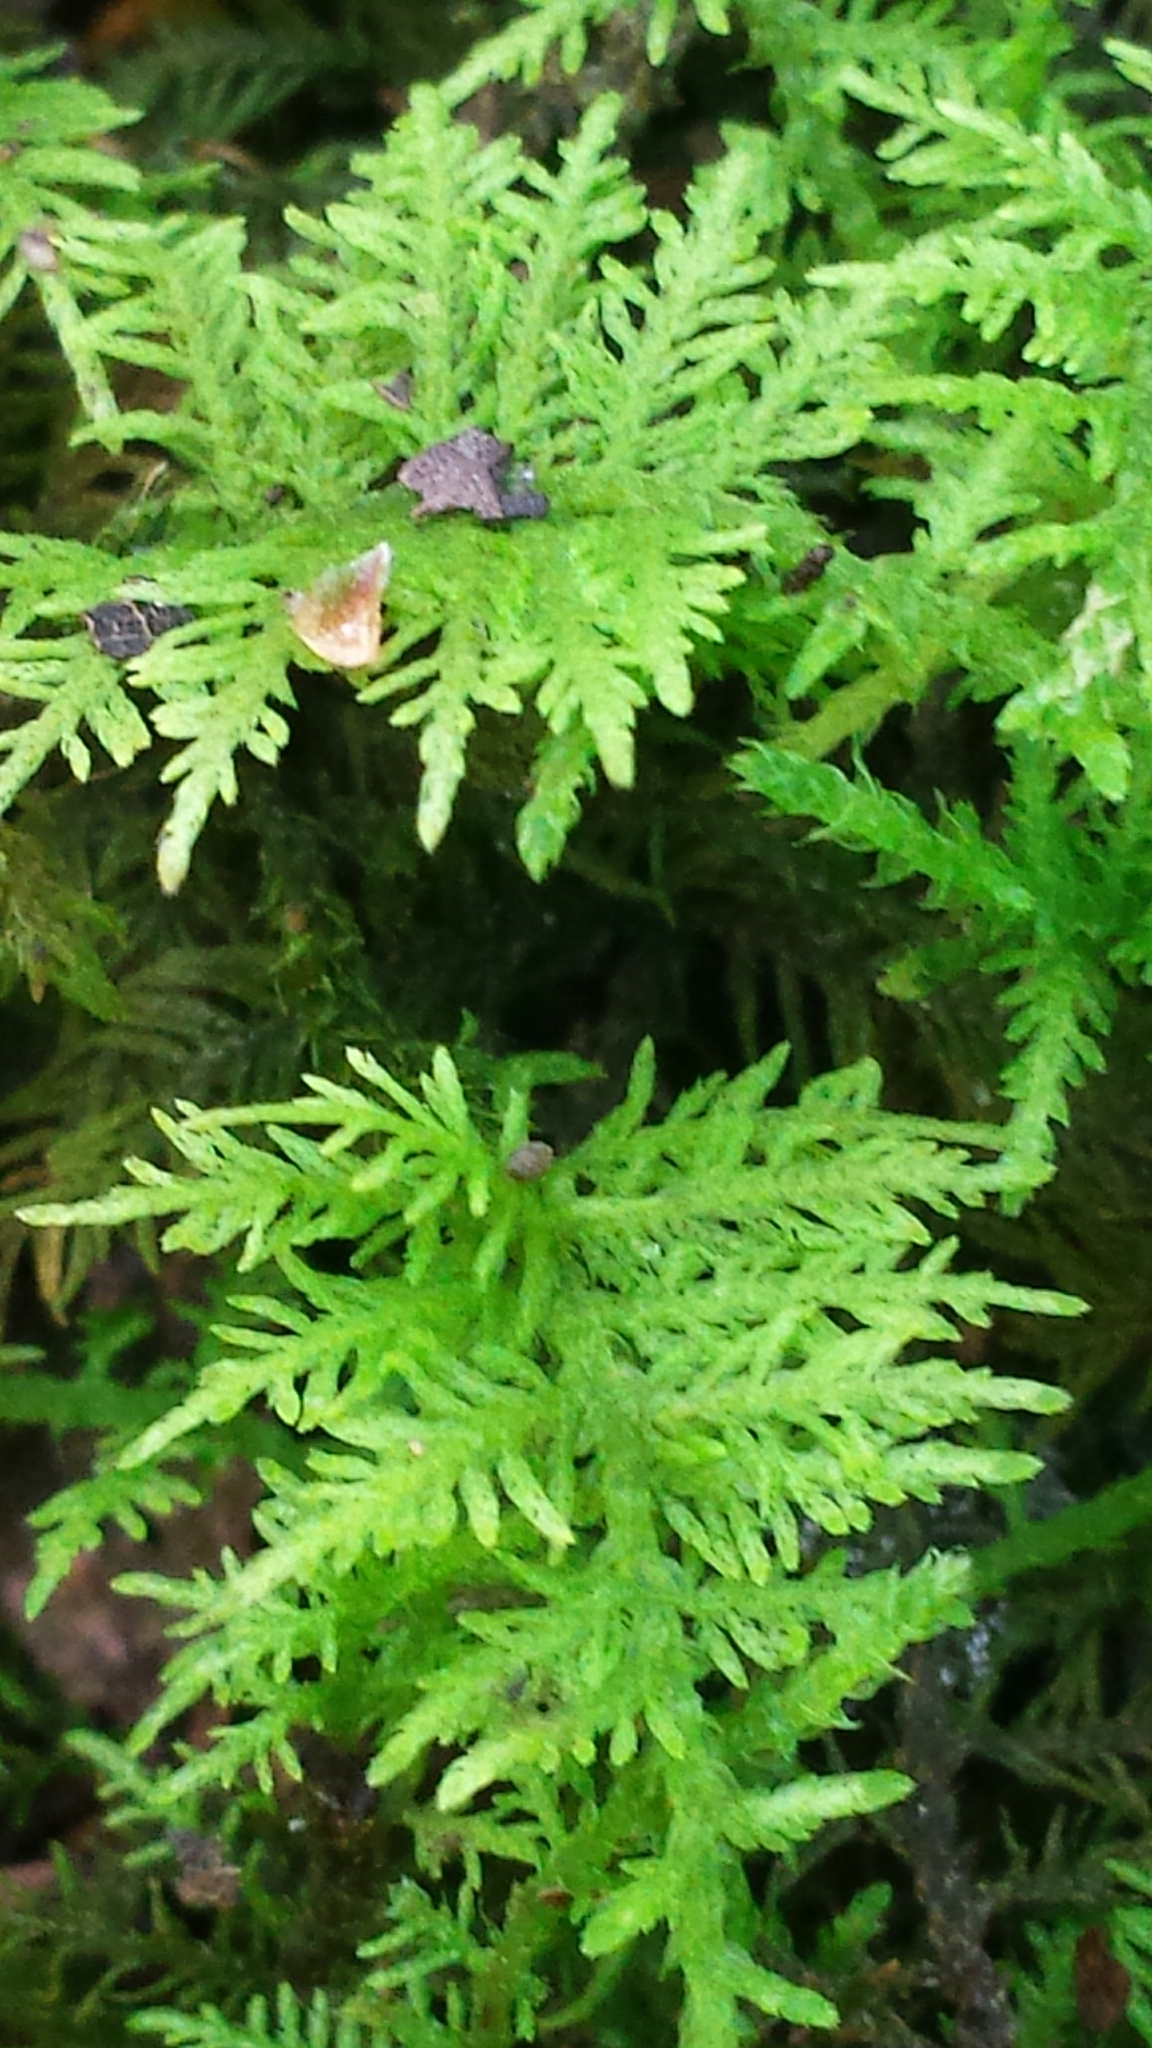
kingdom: Plantae
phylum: Bryophyta
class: Bryopsida
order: Hypnales
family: Thuidiaceae
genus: Thuidium
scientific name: Thuidium delicatulum
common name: Delicate fern moss
